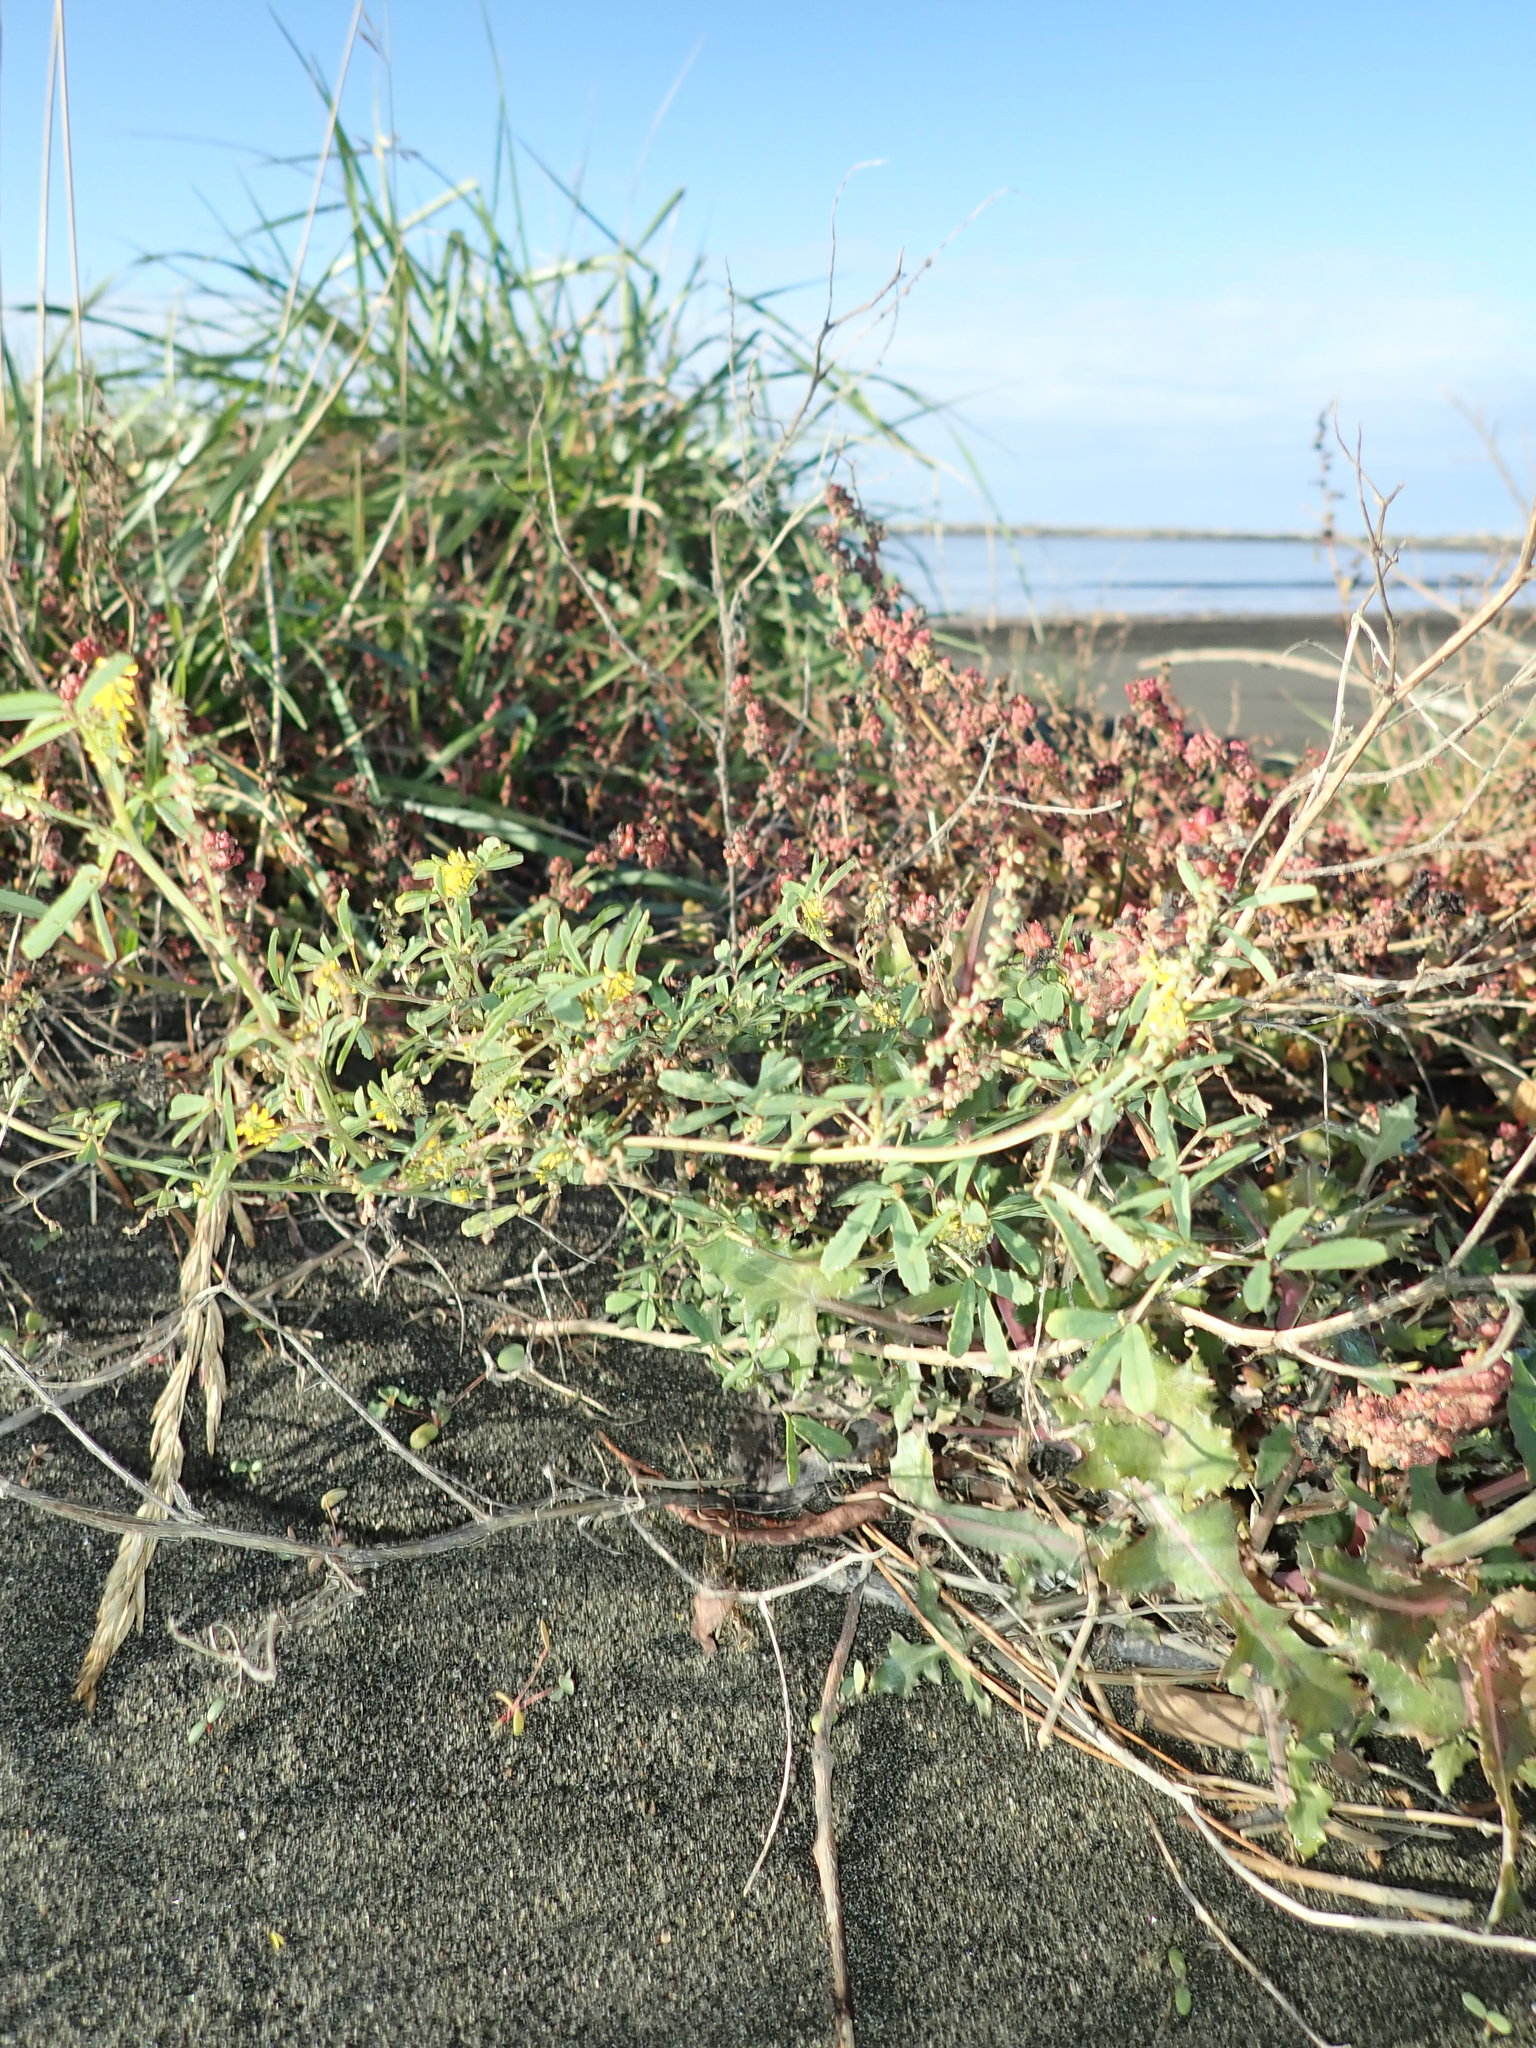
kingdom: Plantae
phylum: Tracheophyta
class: Magnoliopsida
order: Fabales
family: Fabaceae
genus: Melilotus
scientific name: Melilotus indicus
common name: Small melilot
